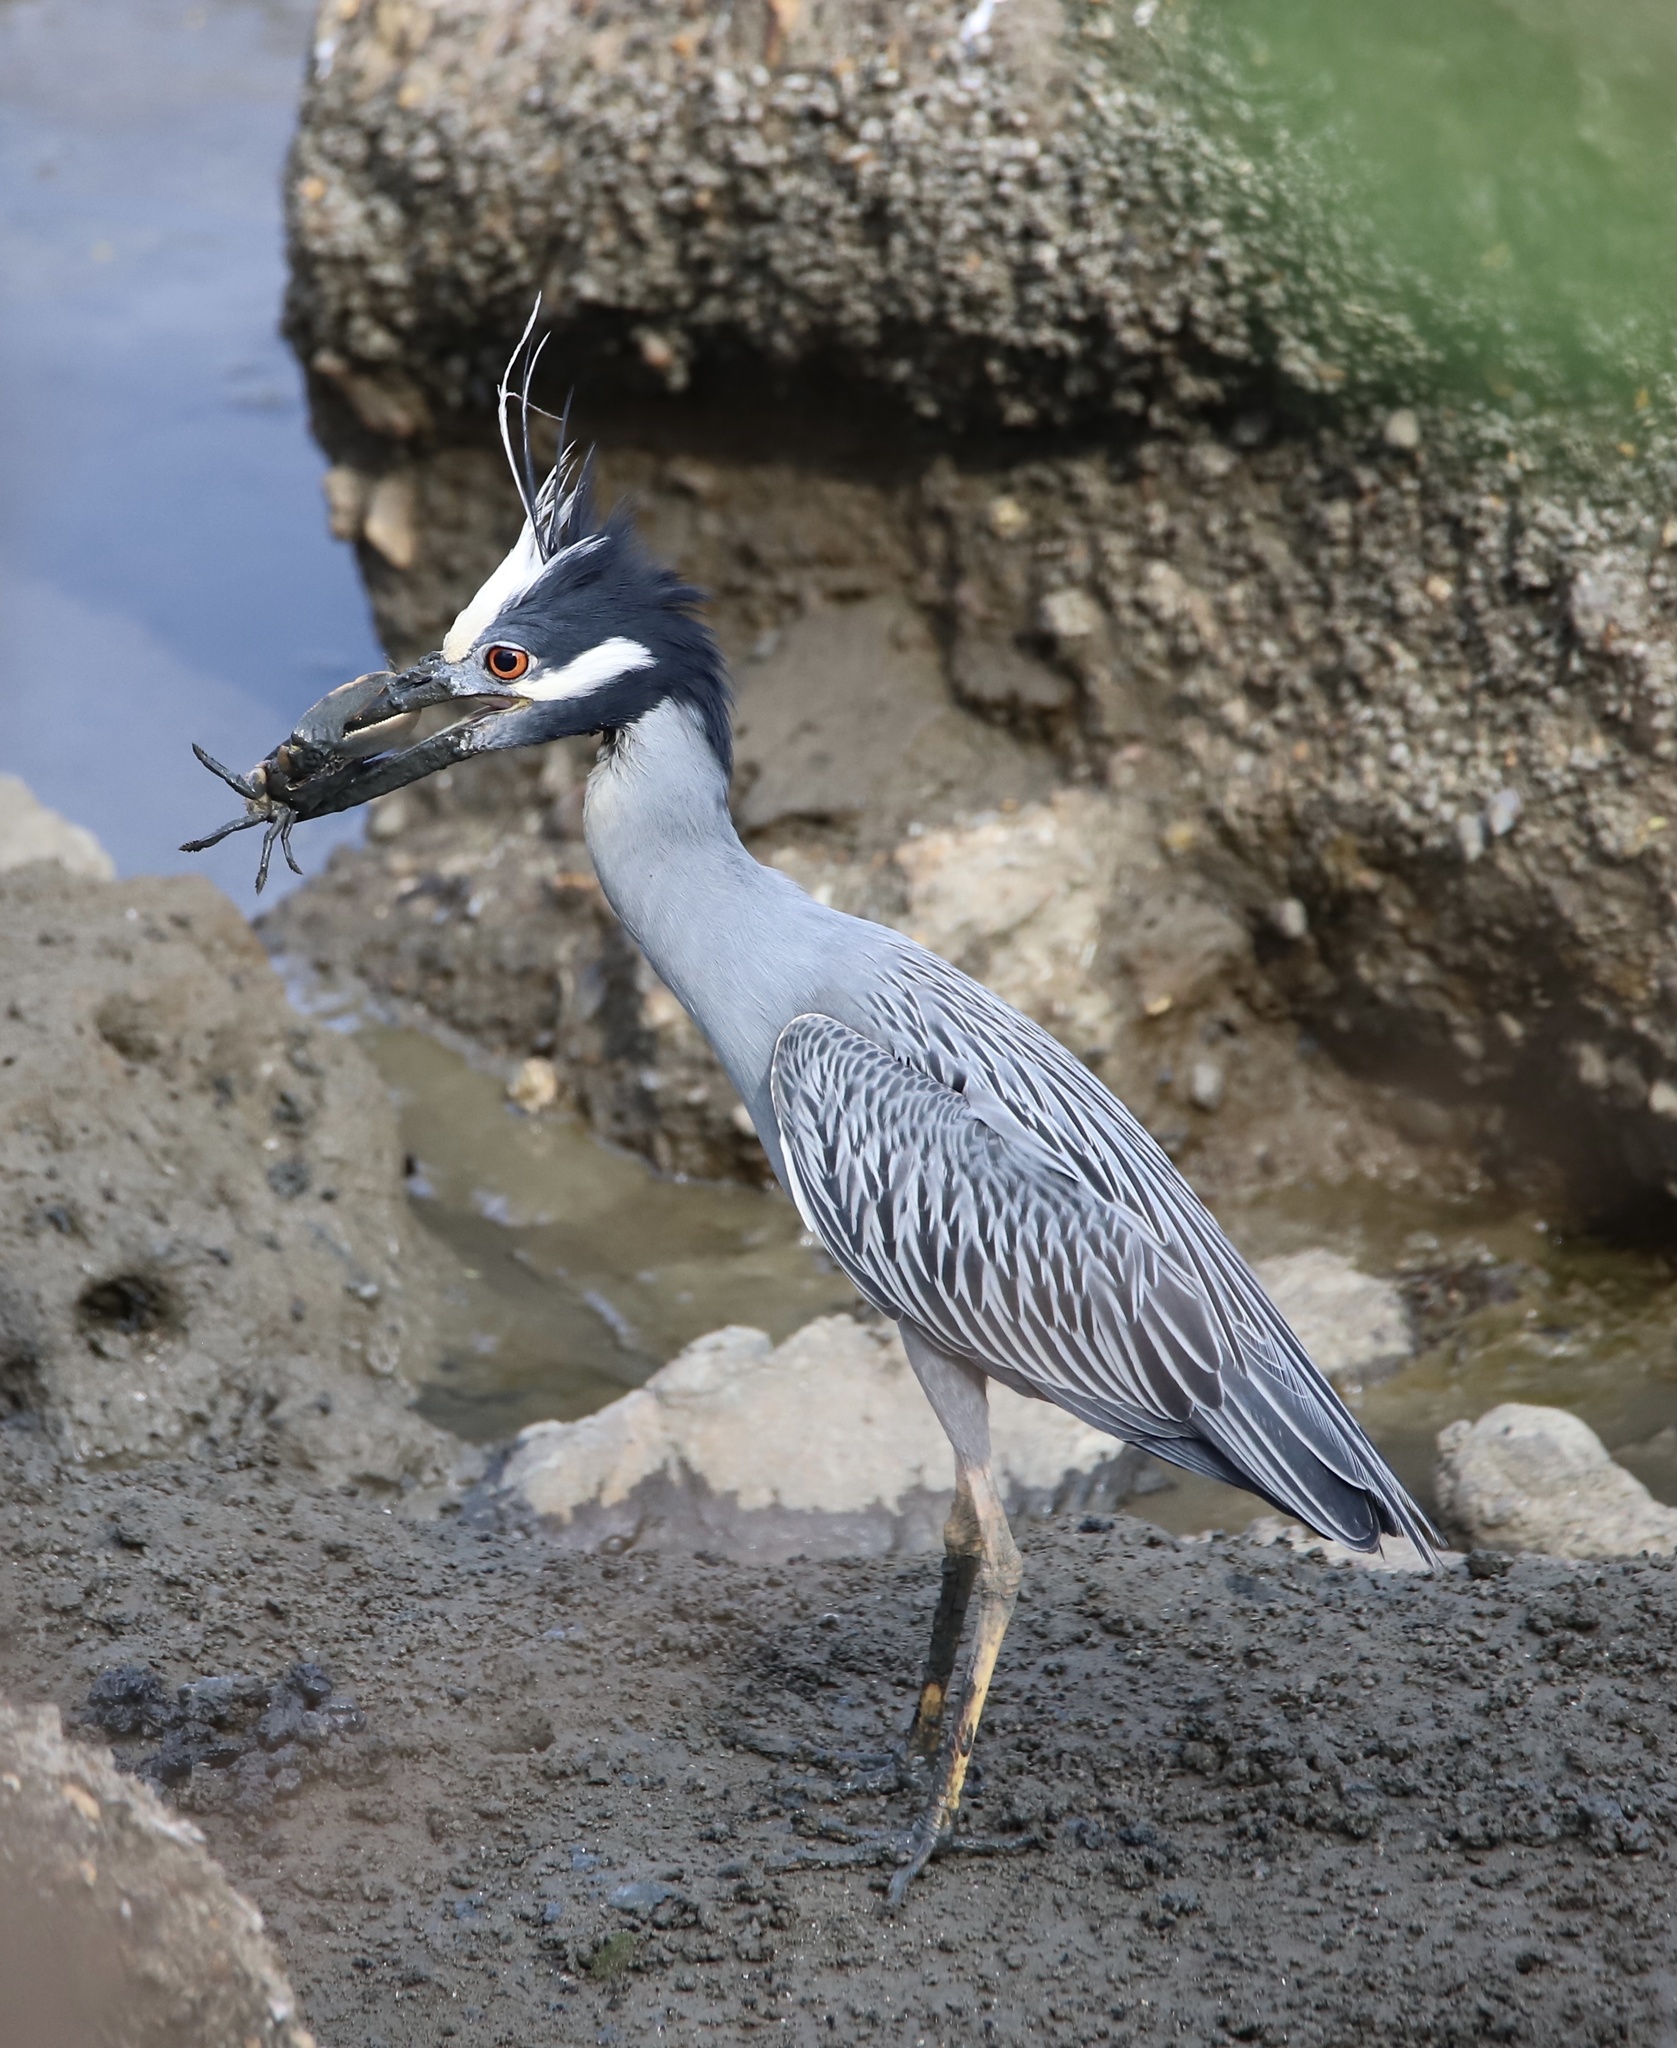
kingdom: Animalia
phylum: Chordata
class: Aves
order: Pelecaniformes
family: Ardeidae
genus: Nyctanassa
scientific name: Nyctanassa violacea
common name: Yellow-crowned night heron
